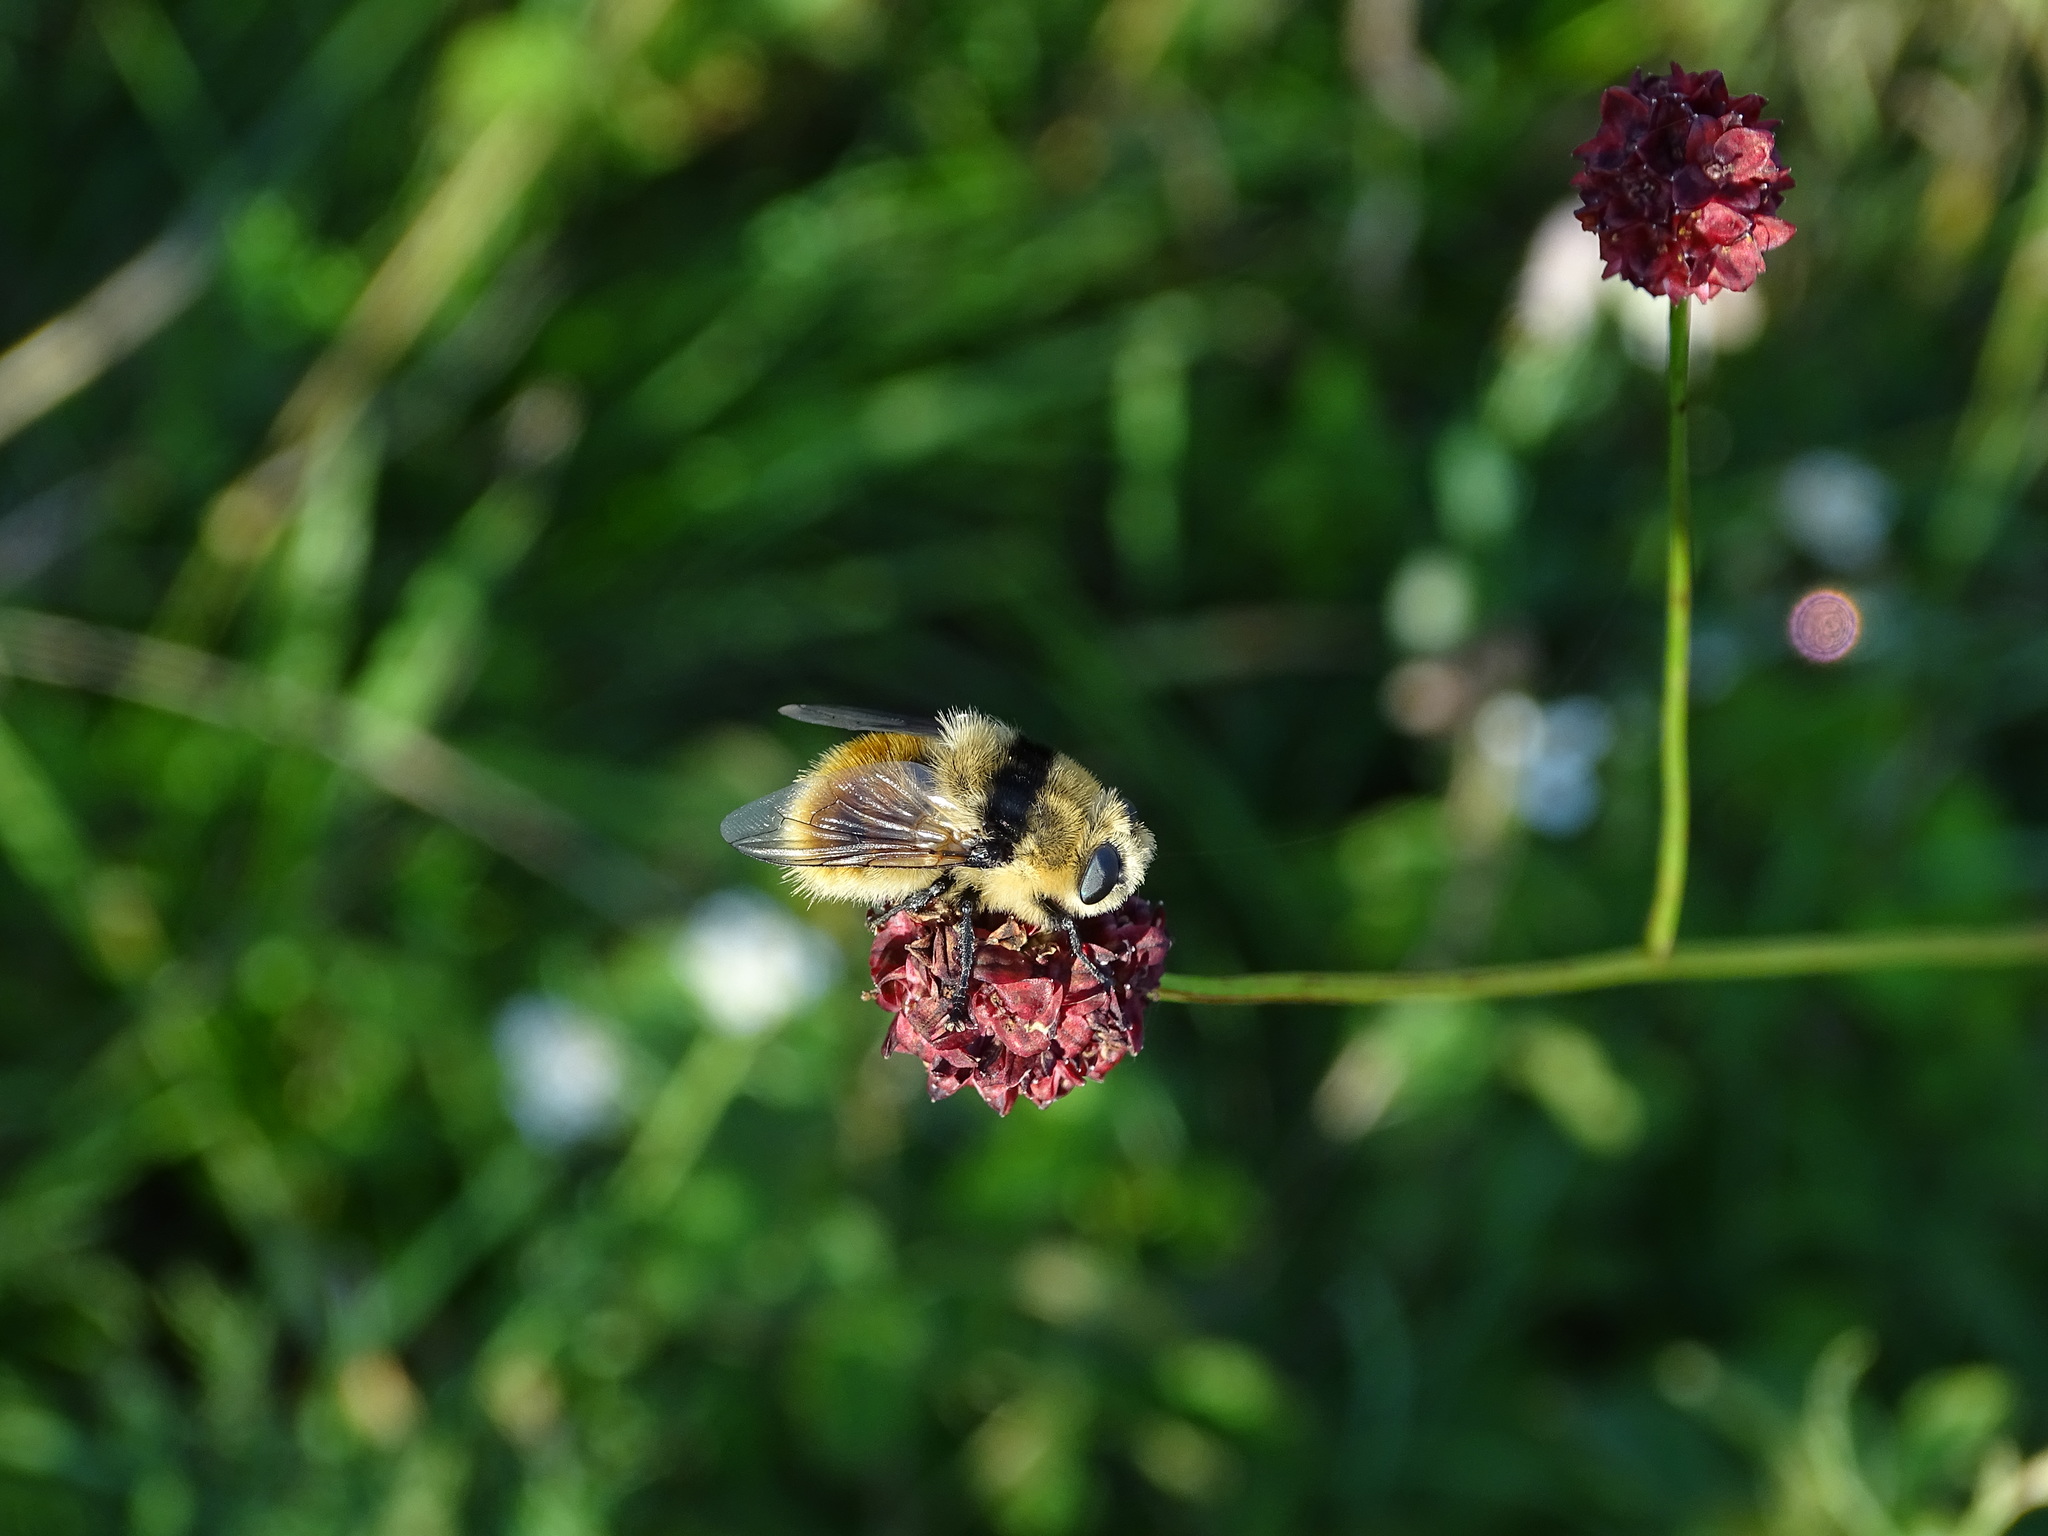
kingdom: Animalia
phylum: Arthropoda
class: Insecta
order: Diptera
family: Oestridae
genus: Cephenemyia
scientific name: Cephenemyia stimulator
